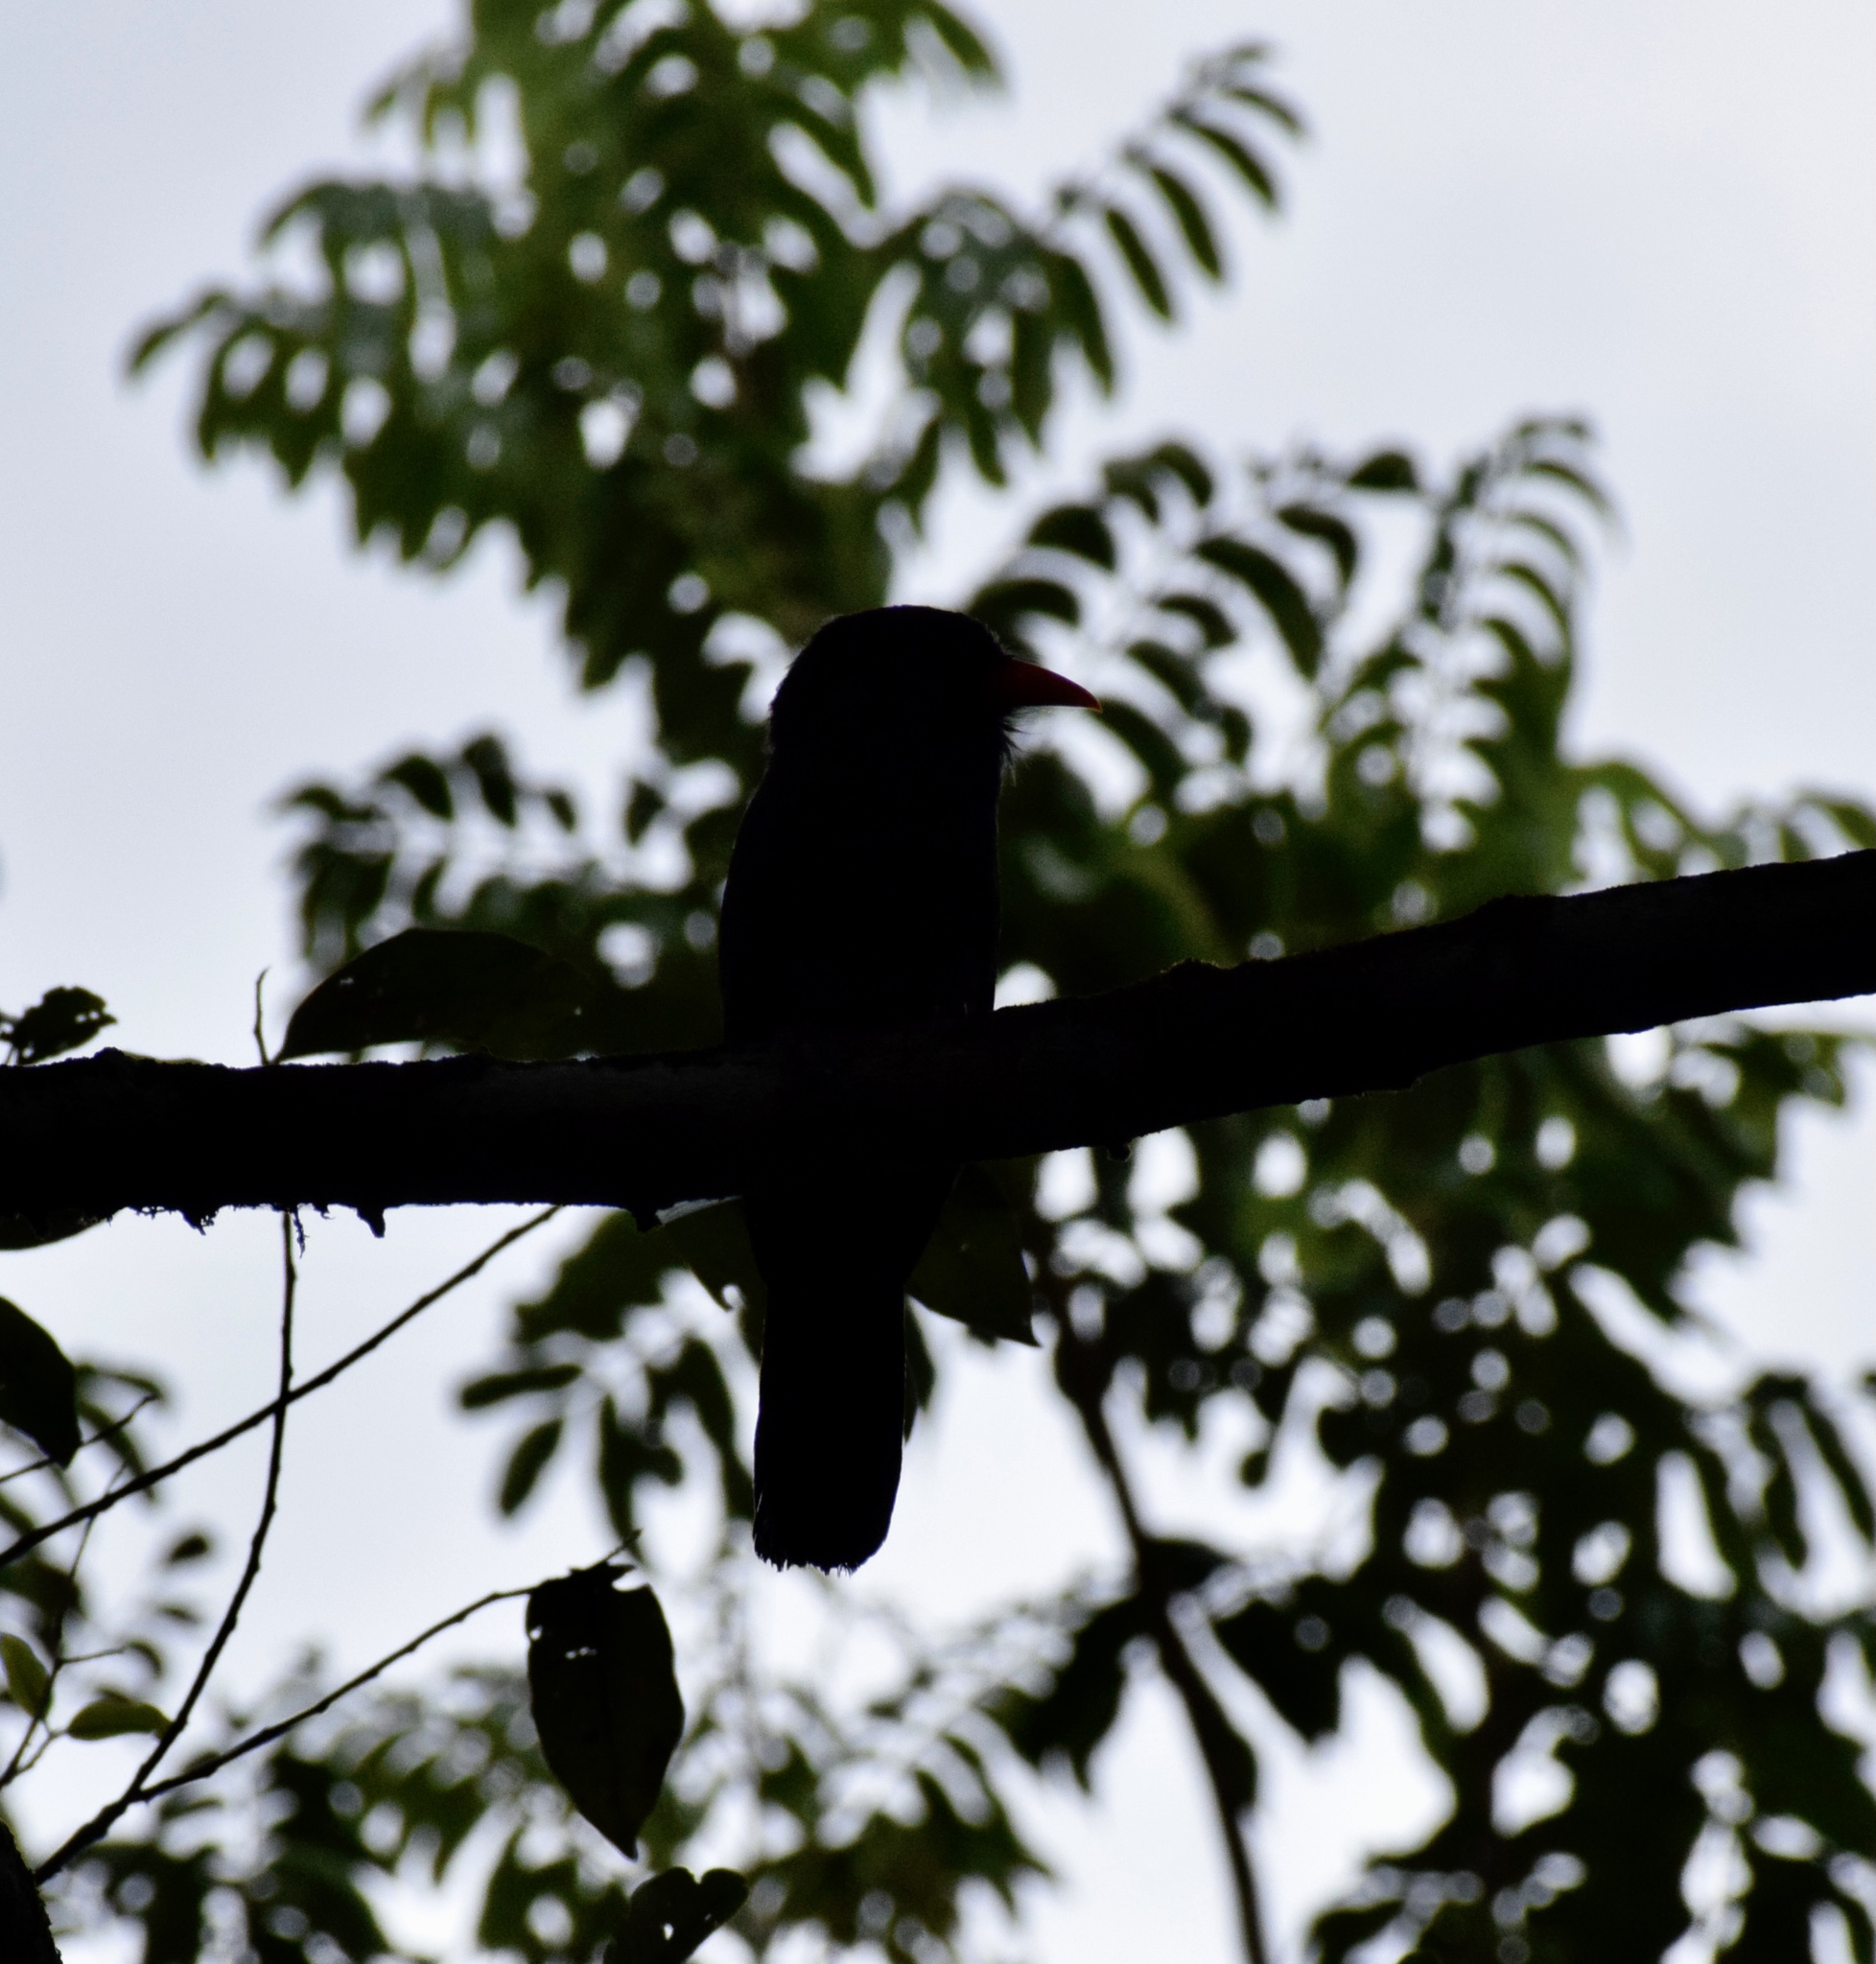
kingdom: Animalia
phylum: Chordata
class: Aves
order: Piciformes
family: Bucconidae
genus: Monasa
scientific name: Monasa nigrifrons
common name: Black-fronted nunbird
